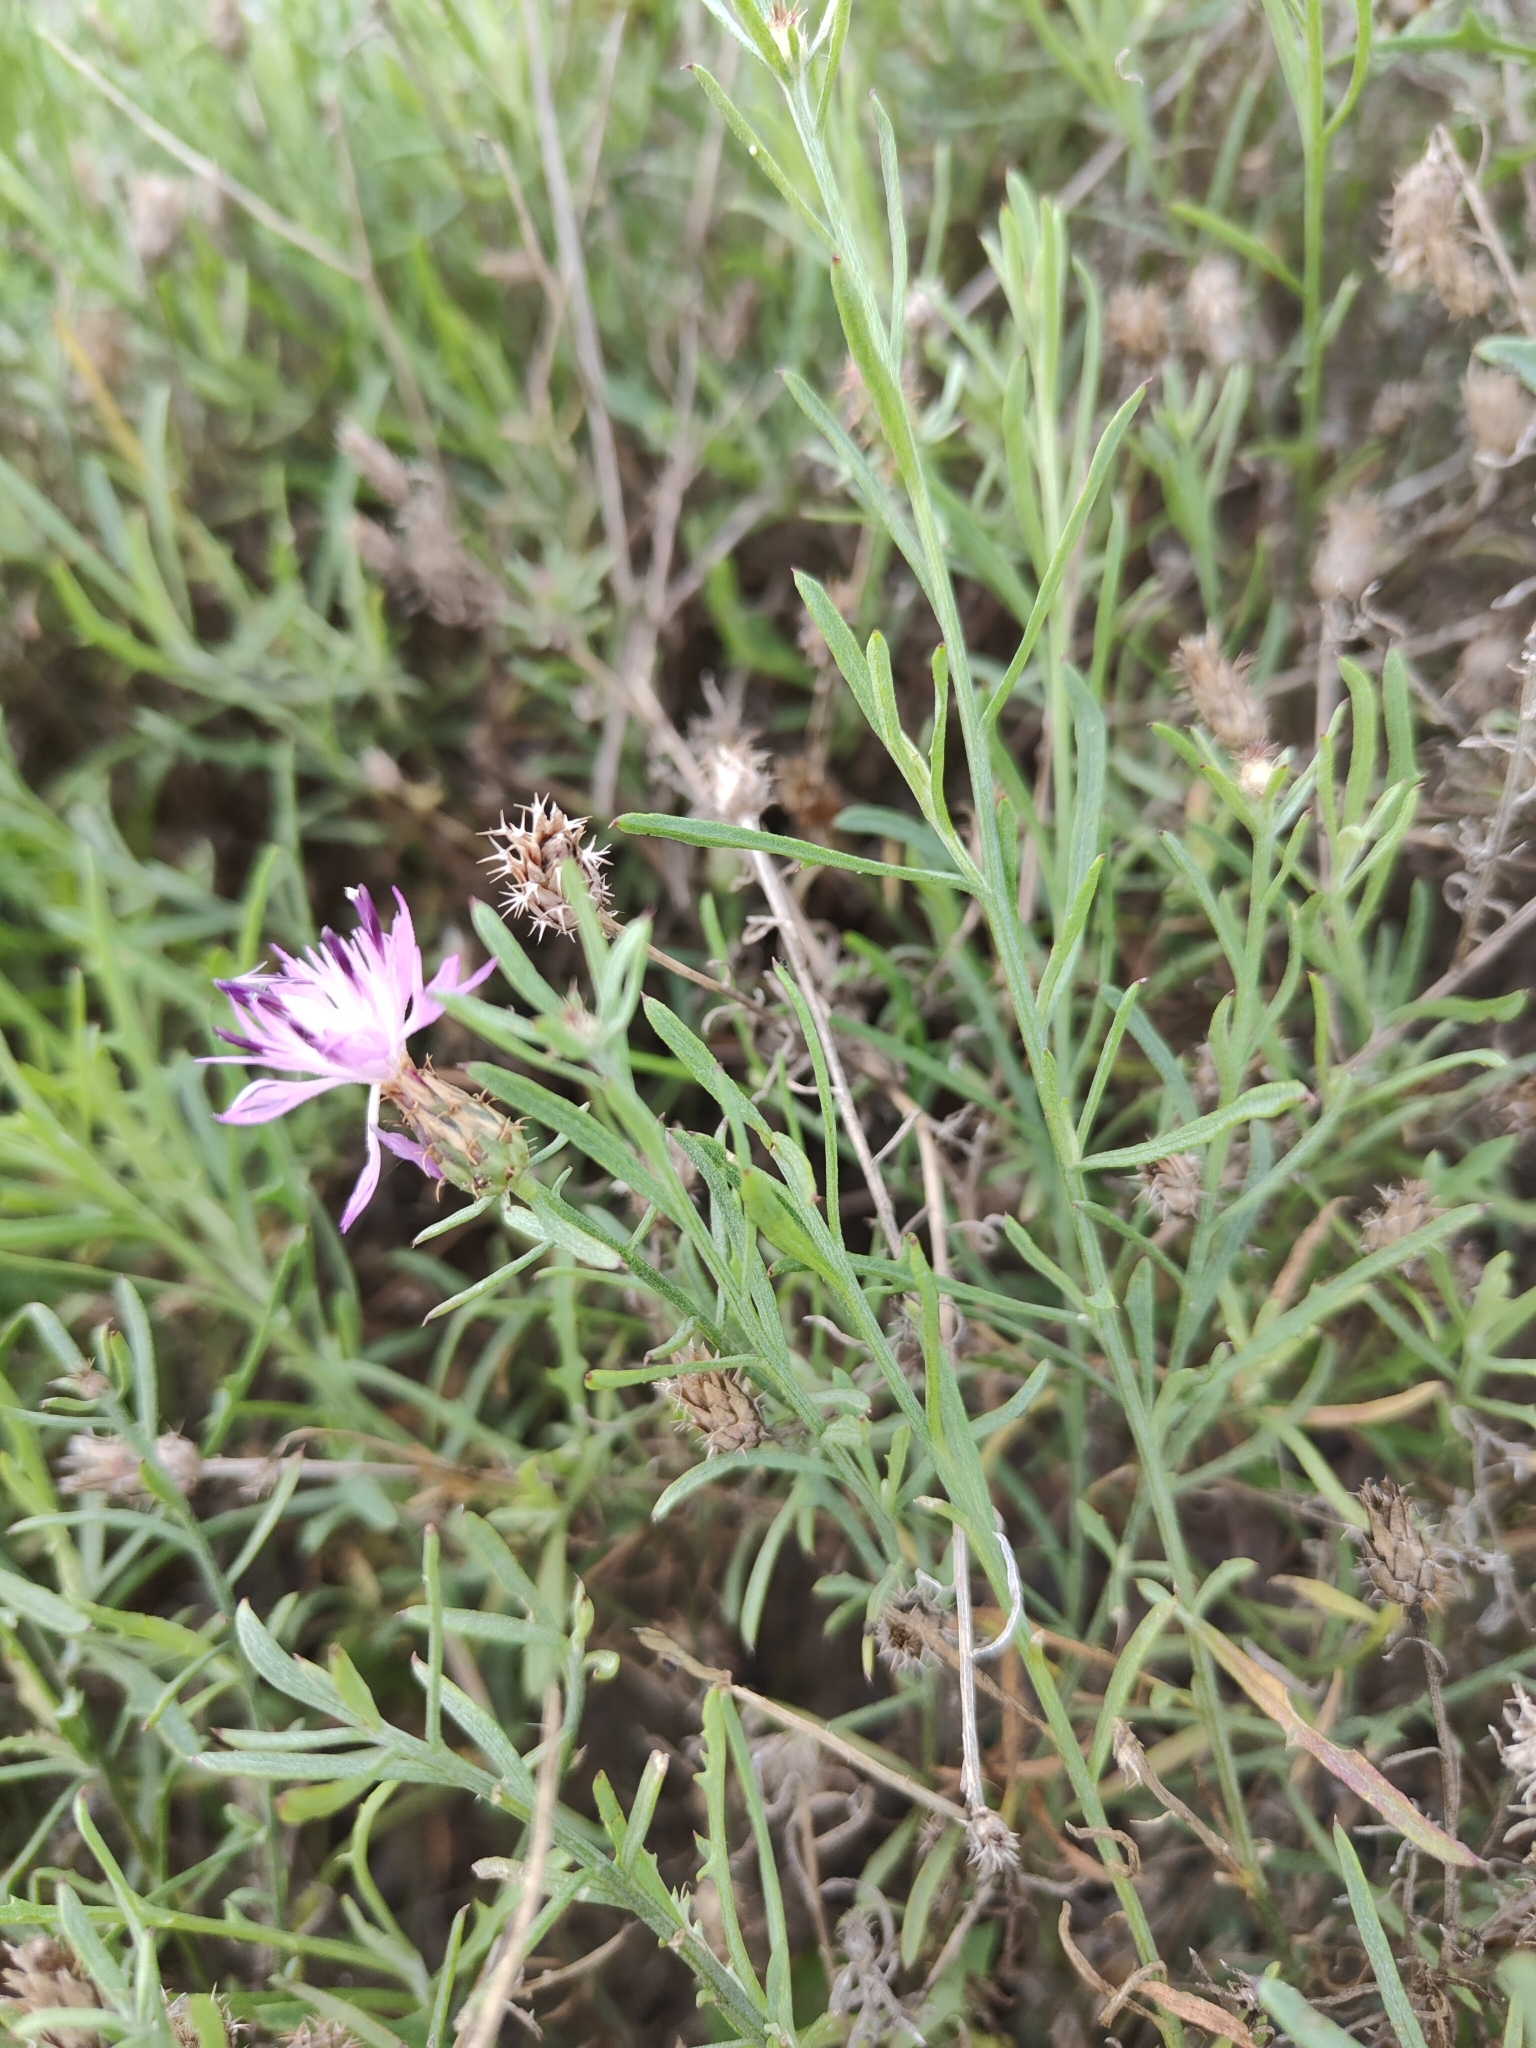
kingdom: Plantae
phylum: Tracheophyta
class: Magnoliopsida
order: Asterales
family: Asteraceae
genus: Centaurea
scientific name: Centaurea aspera
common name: Rough star-thistle
